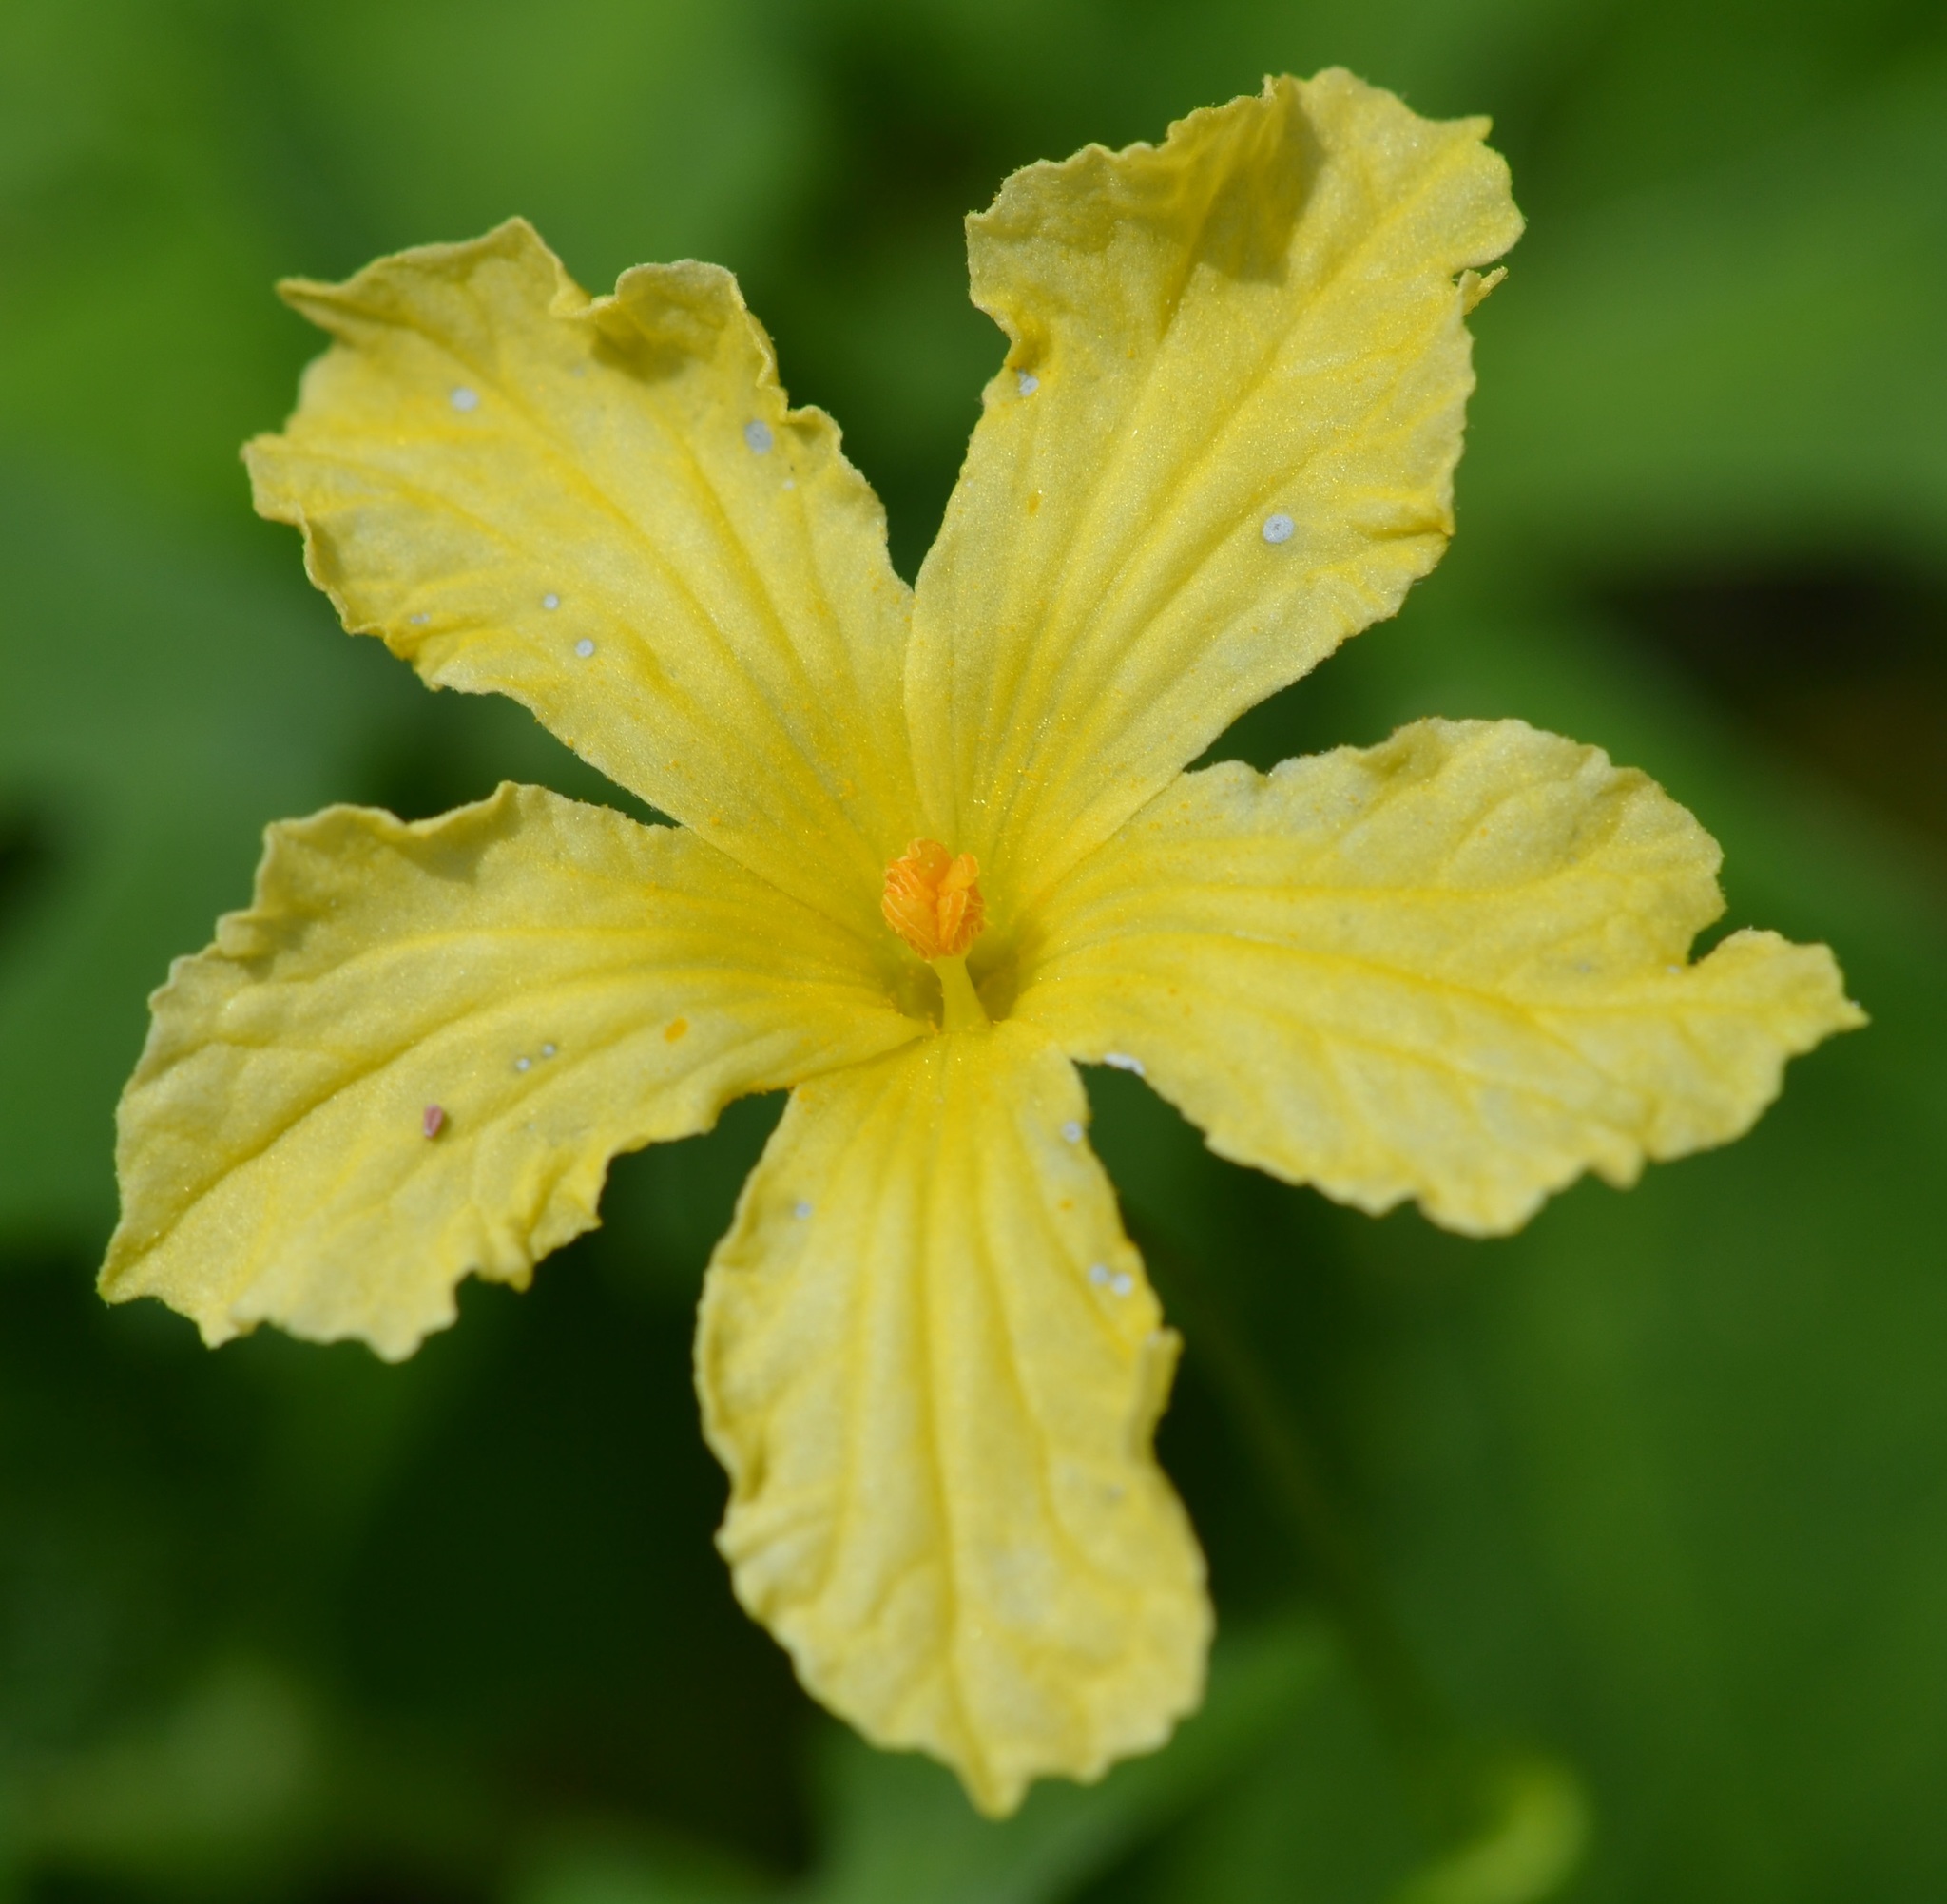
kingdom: Plantae
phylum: Tracheophyta
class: Magnoliopsida
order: Cucurbitales
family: Cucurbitaceae
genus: Momordica
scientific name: Momordica charantia
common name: Balsampear
